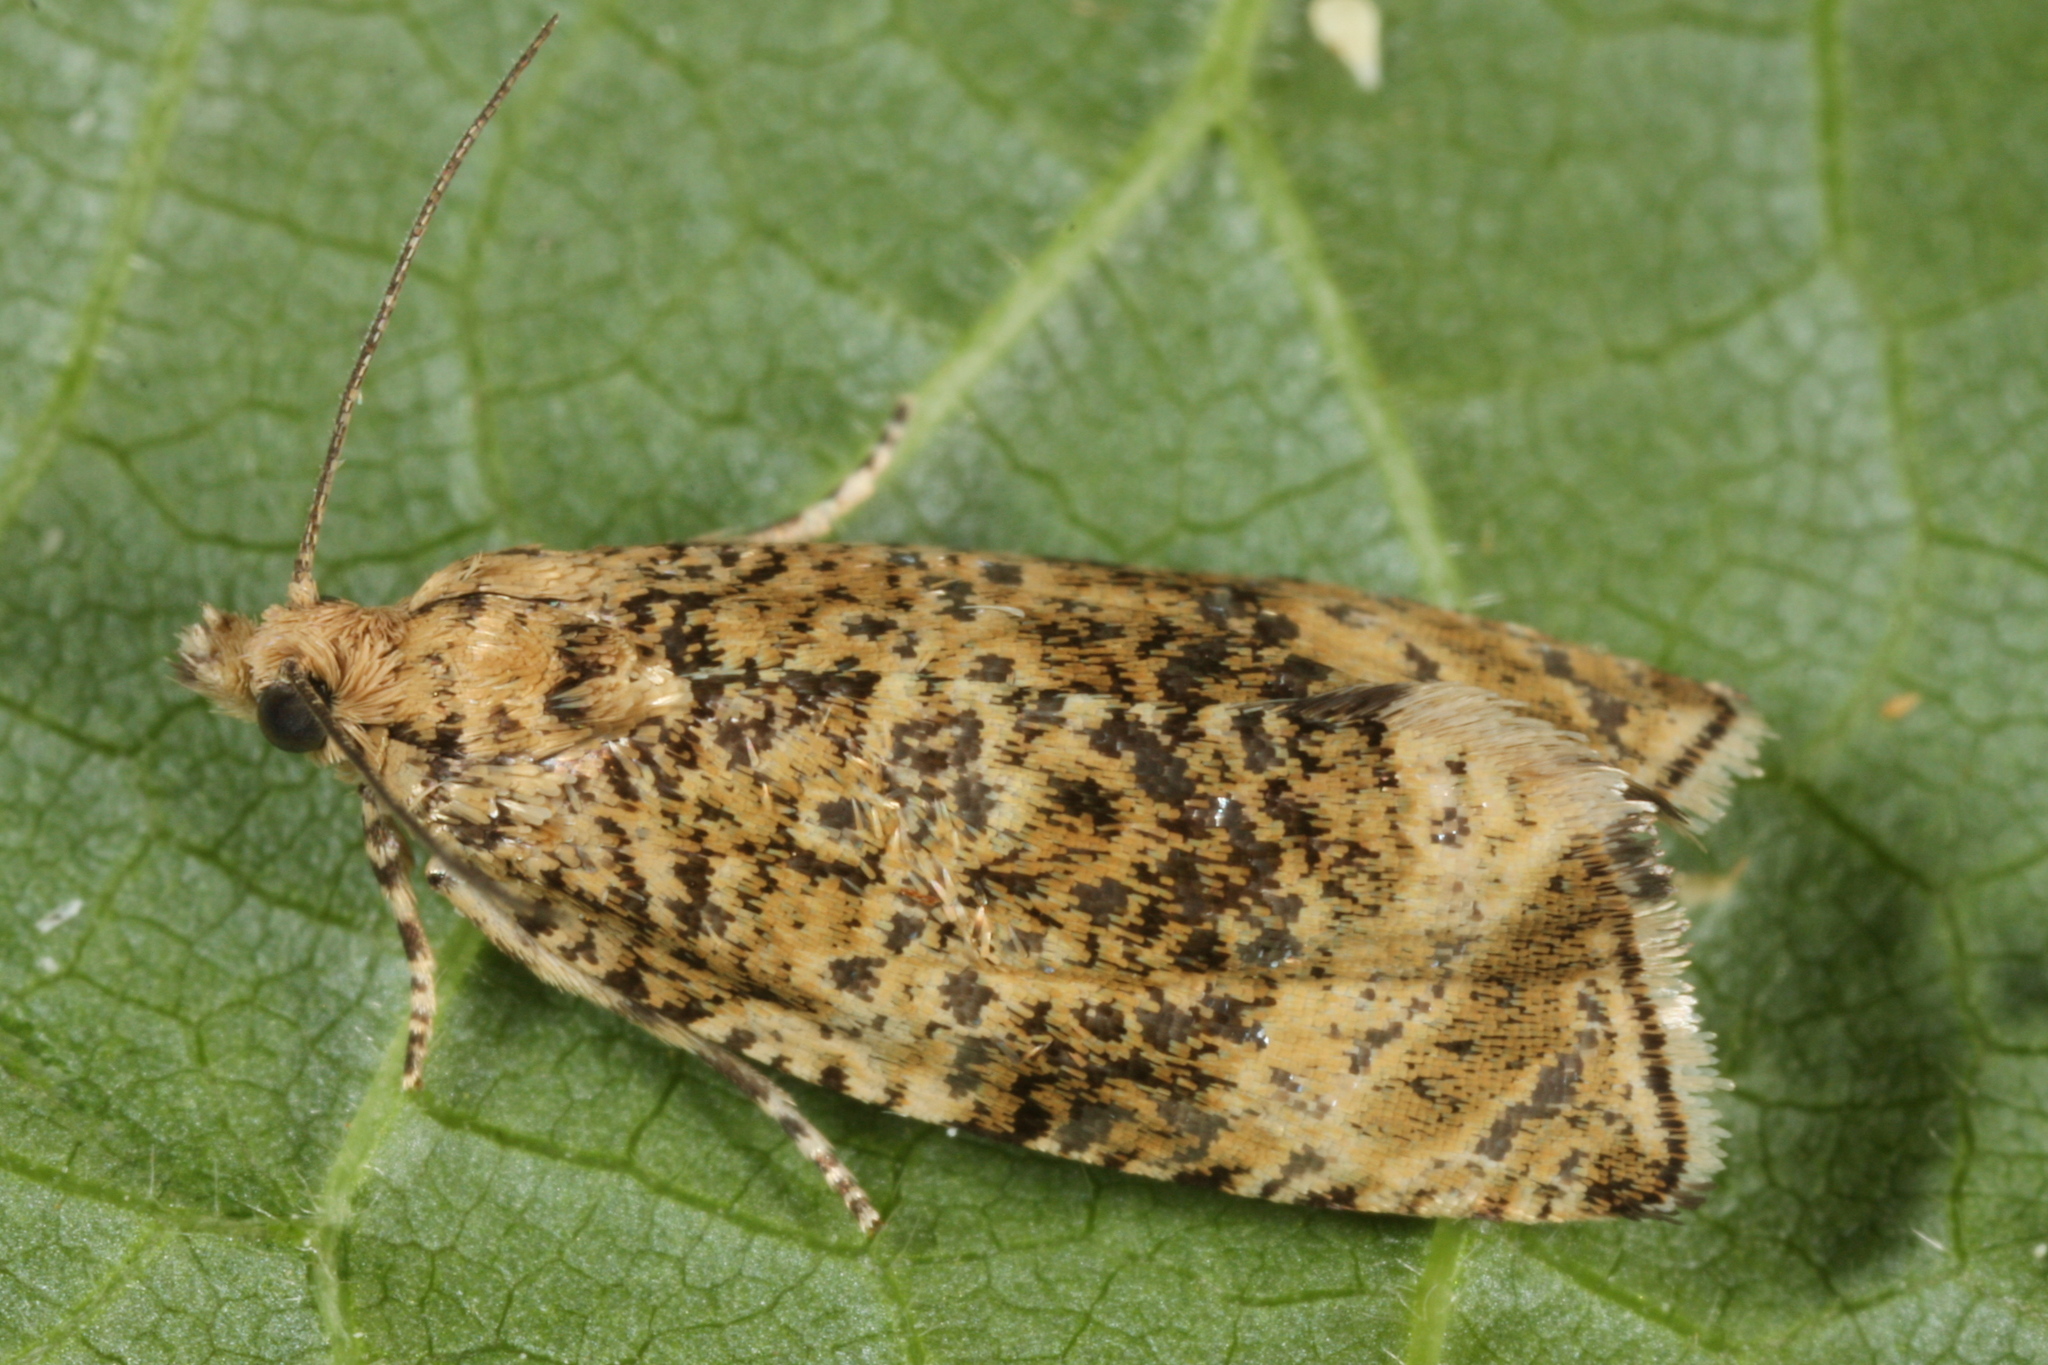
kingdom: Animalia
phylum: Arthropoda
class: Insecta
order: Lepidoptera
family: Tortricidae
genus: Syricoris
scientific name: Syricoris lacunana
